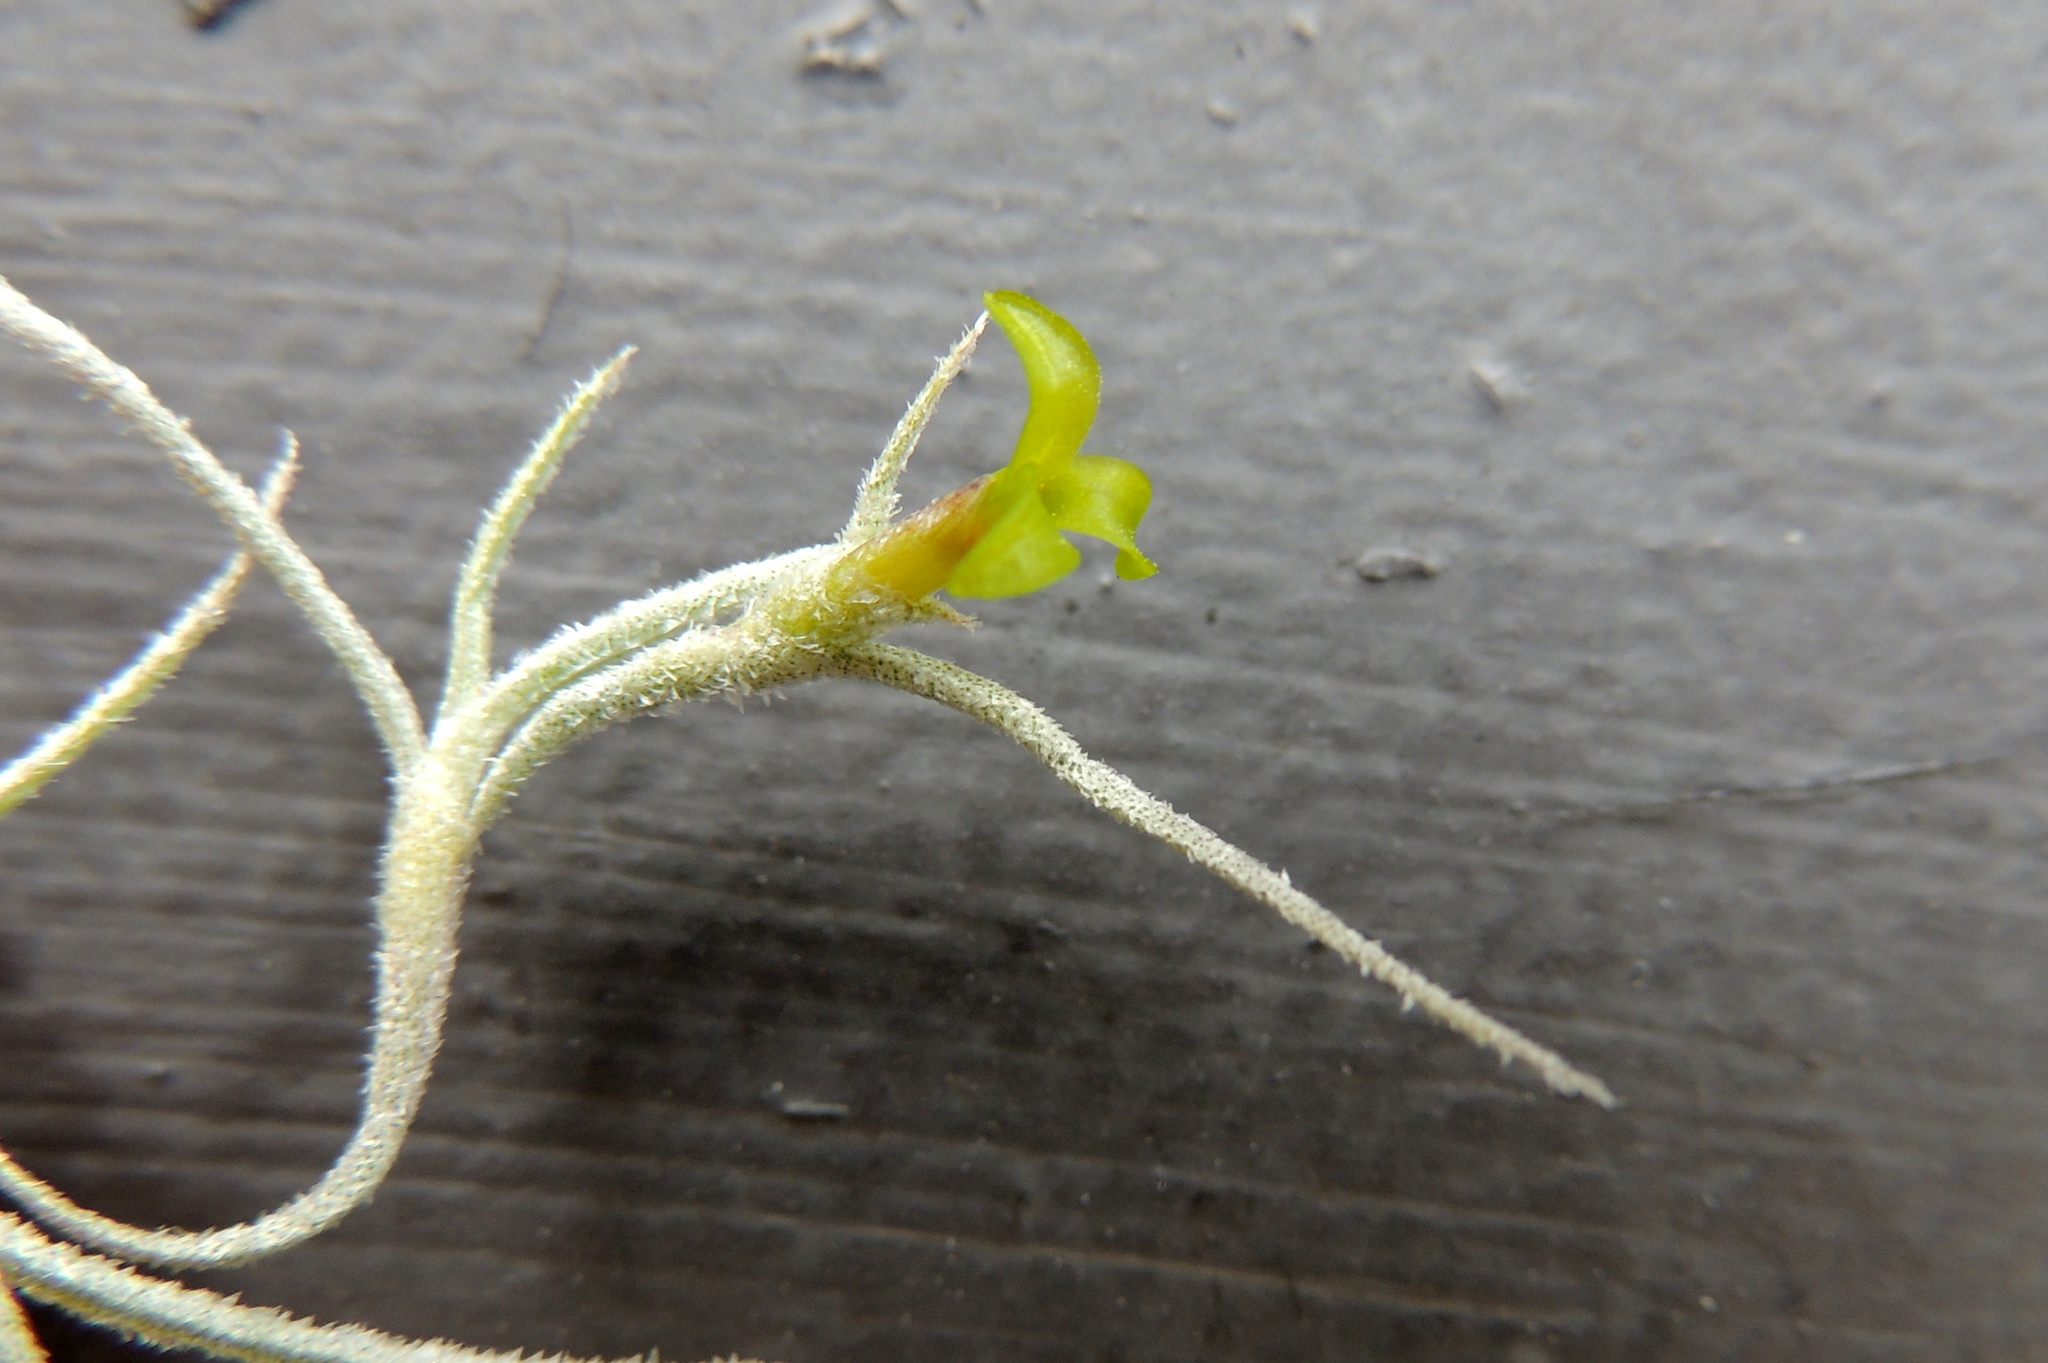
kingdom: Plantae
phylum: Tracheophyta
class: Liliopsida
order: Poales
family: Bromeliaceae
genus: Tillandsia
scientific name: Tillandsia usneoides
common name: Spanish moss
